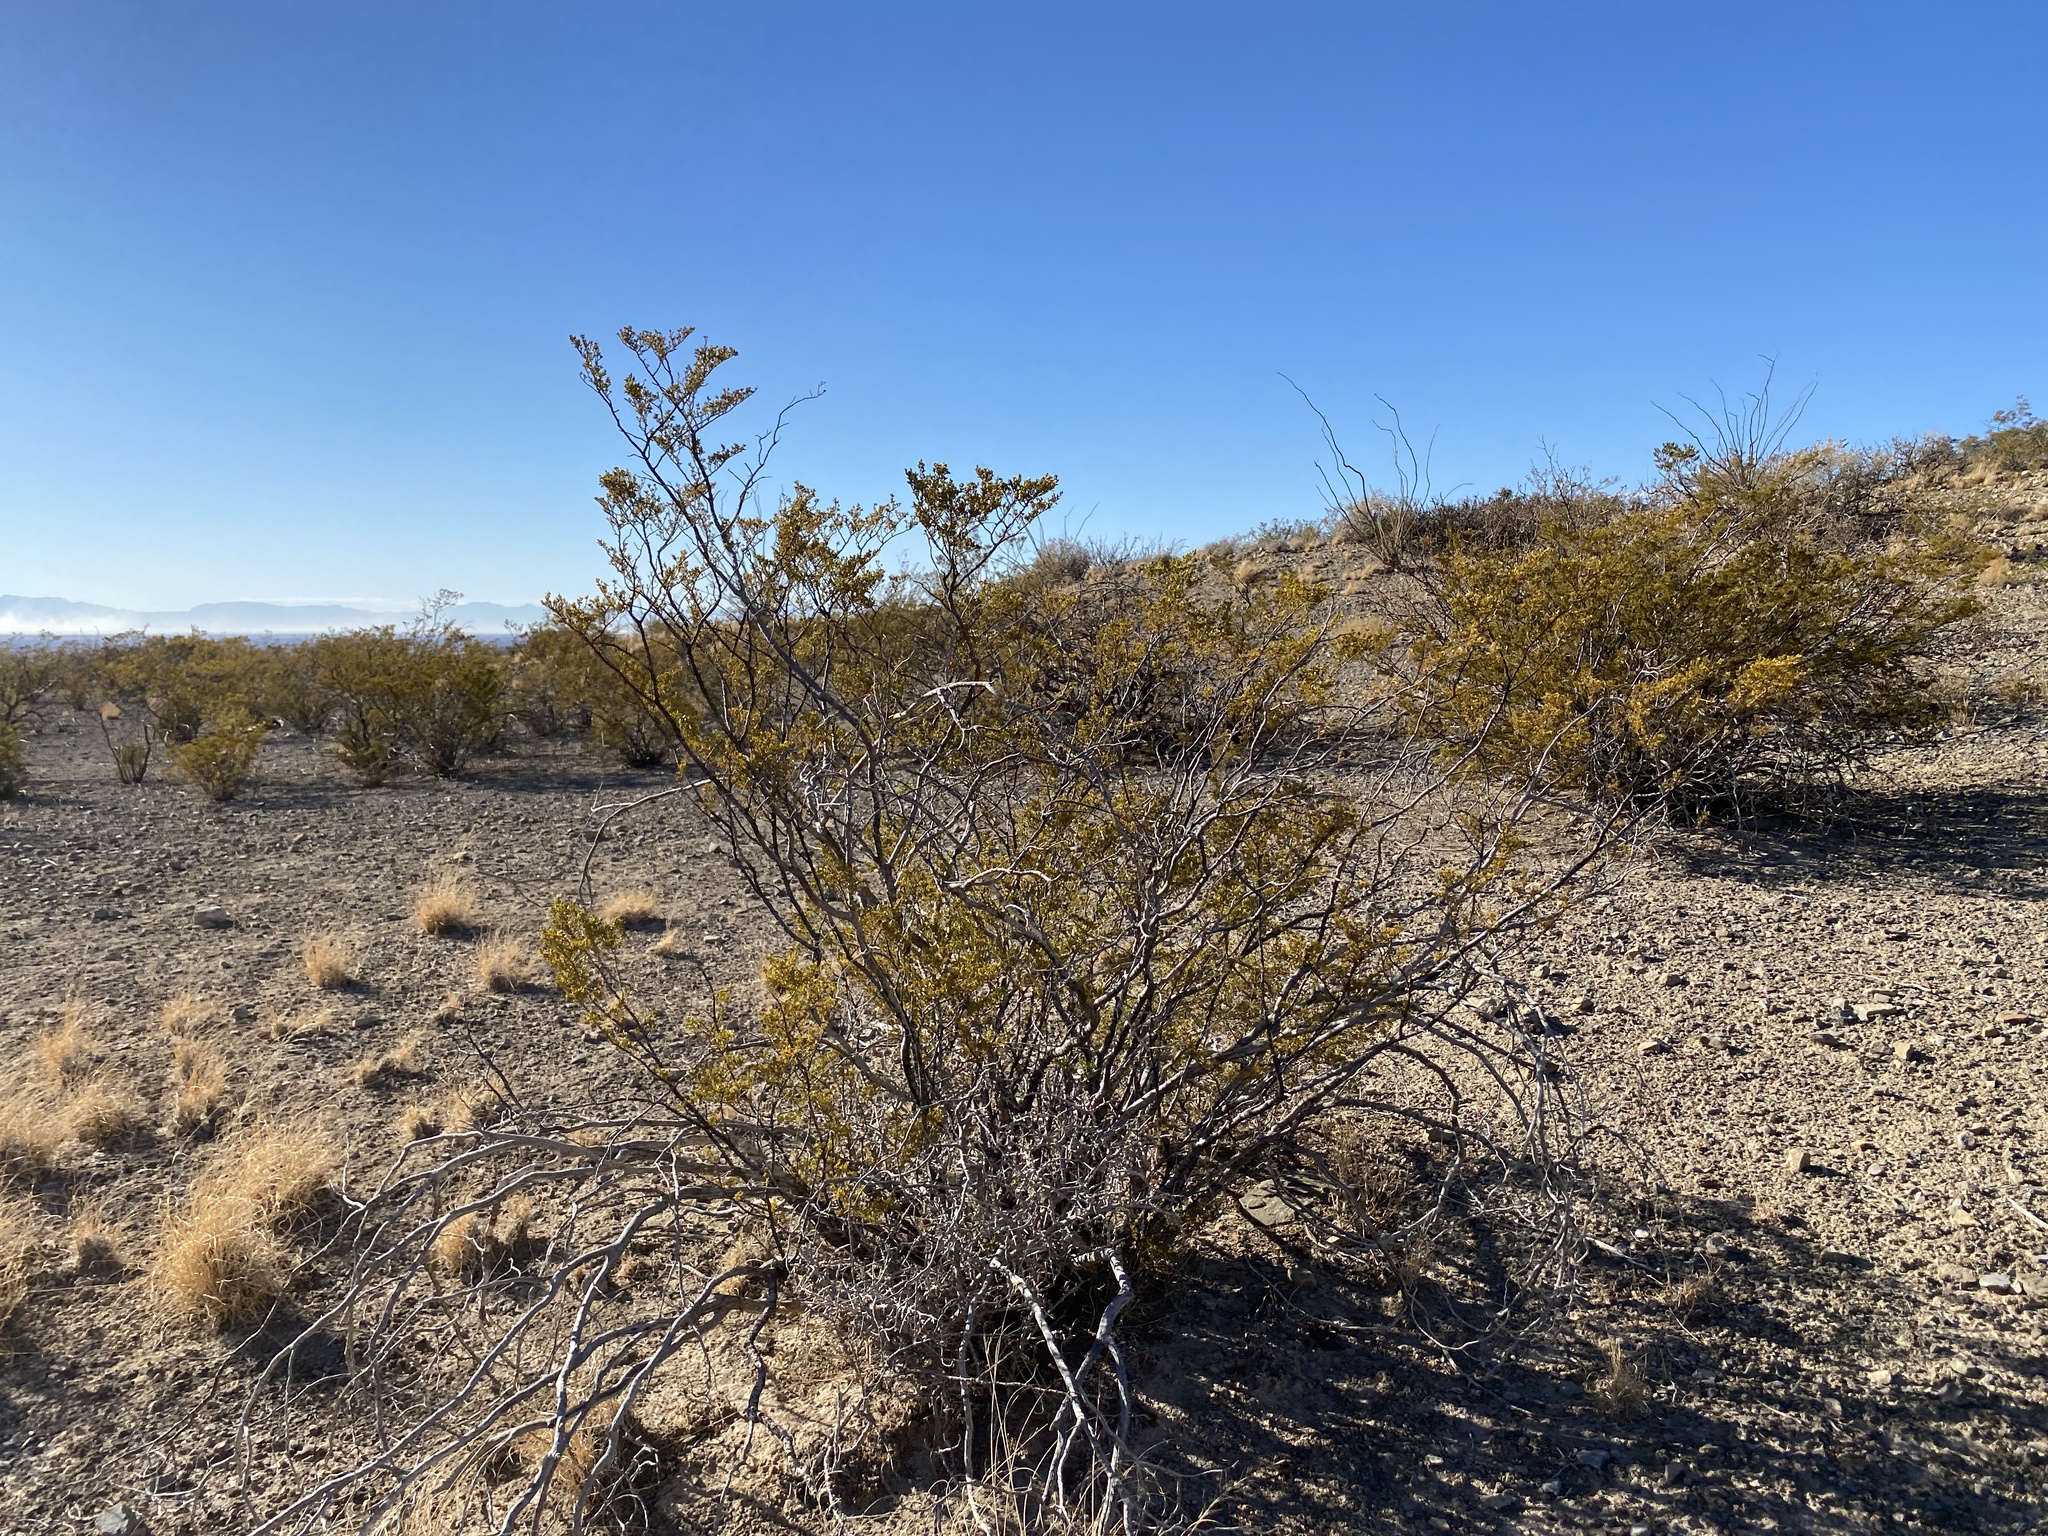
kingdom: Plantae
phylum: Tracheophyta
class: Magnoliopsida
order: Zygophyllales
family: Zygophyllaceae
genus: Larrea
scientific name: Larrea tridentata
